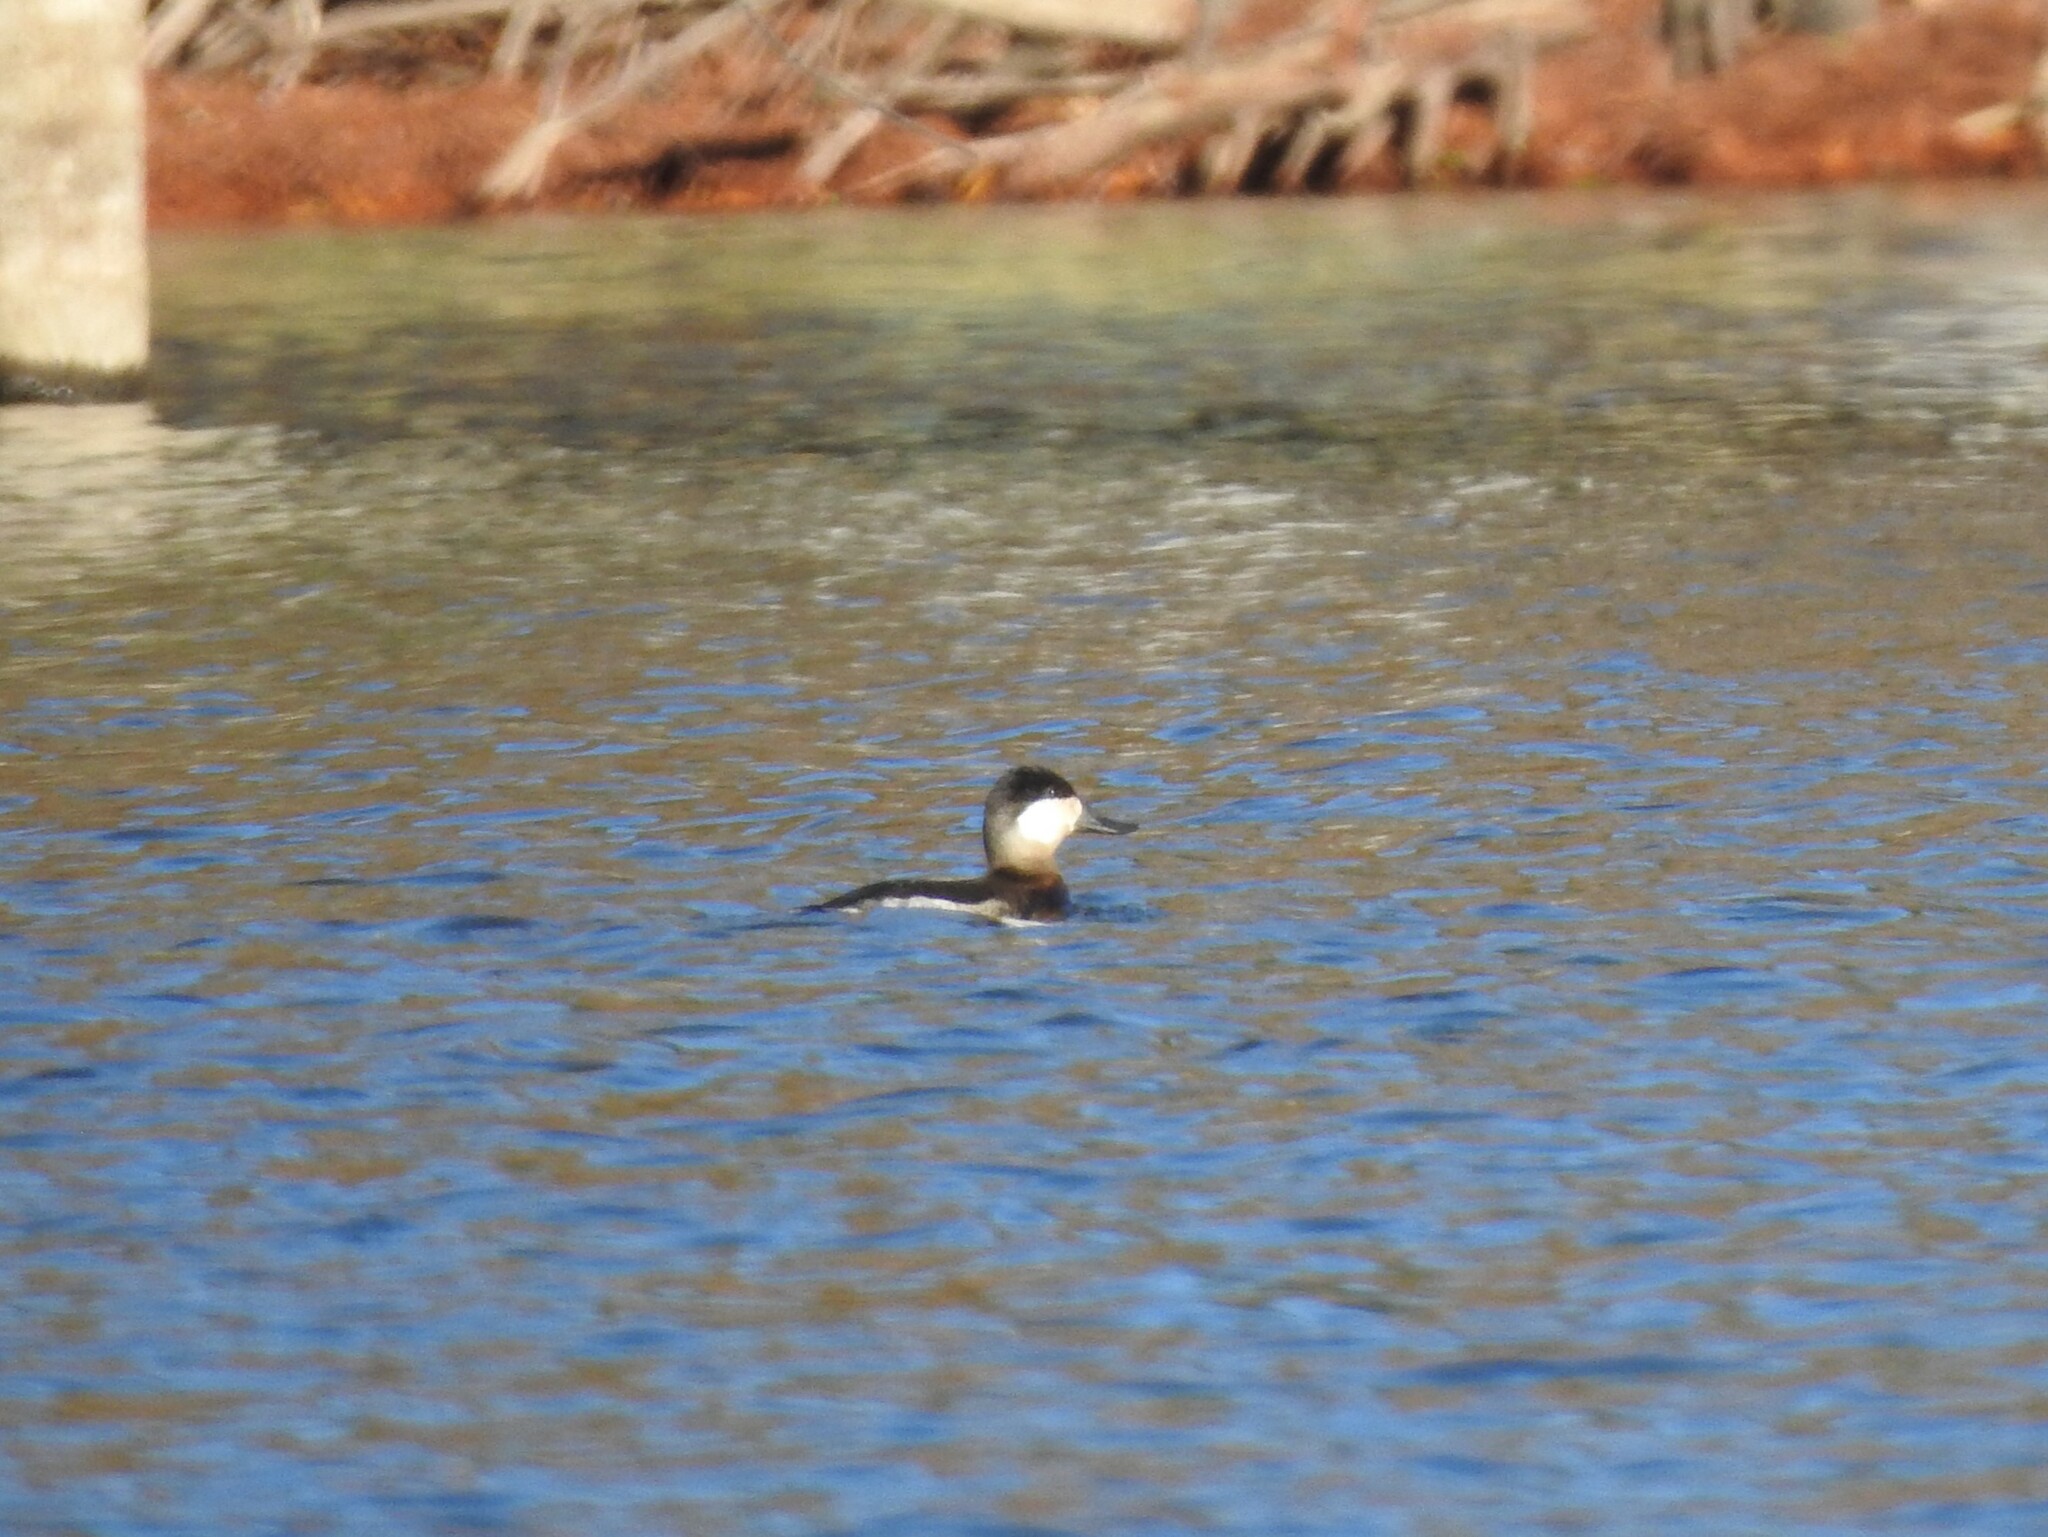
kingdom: Animalia
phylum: Chordata
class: Aves
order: Anseriformes
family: Anatidae
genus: Oxyura
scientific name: Oxyura jamaicensis
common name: Ruddy duck
